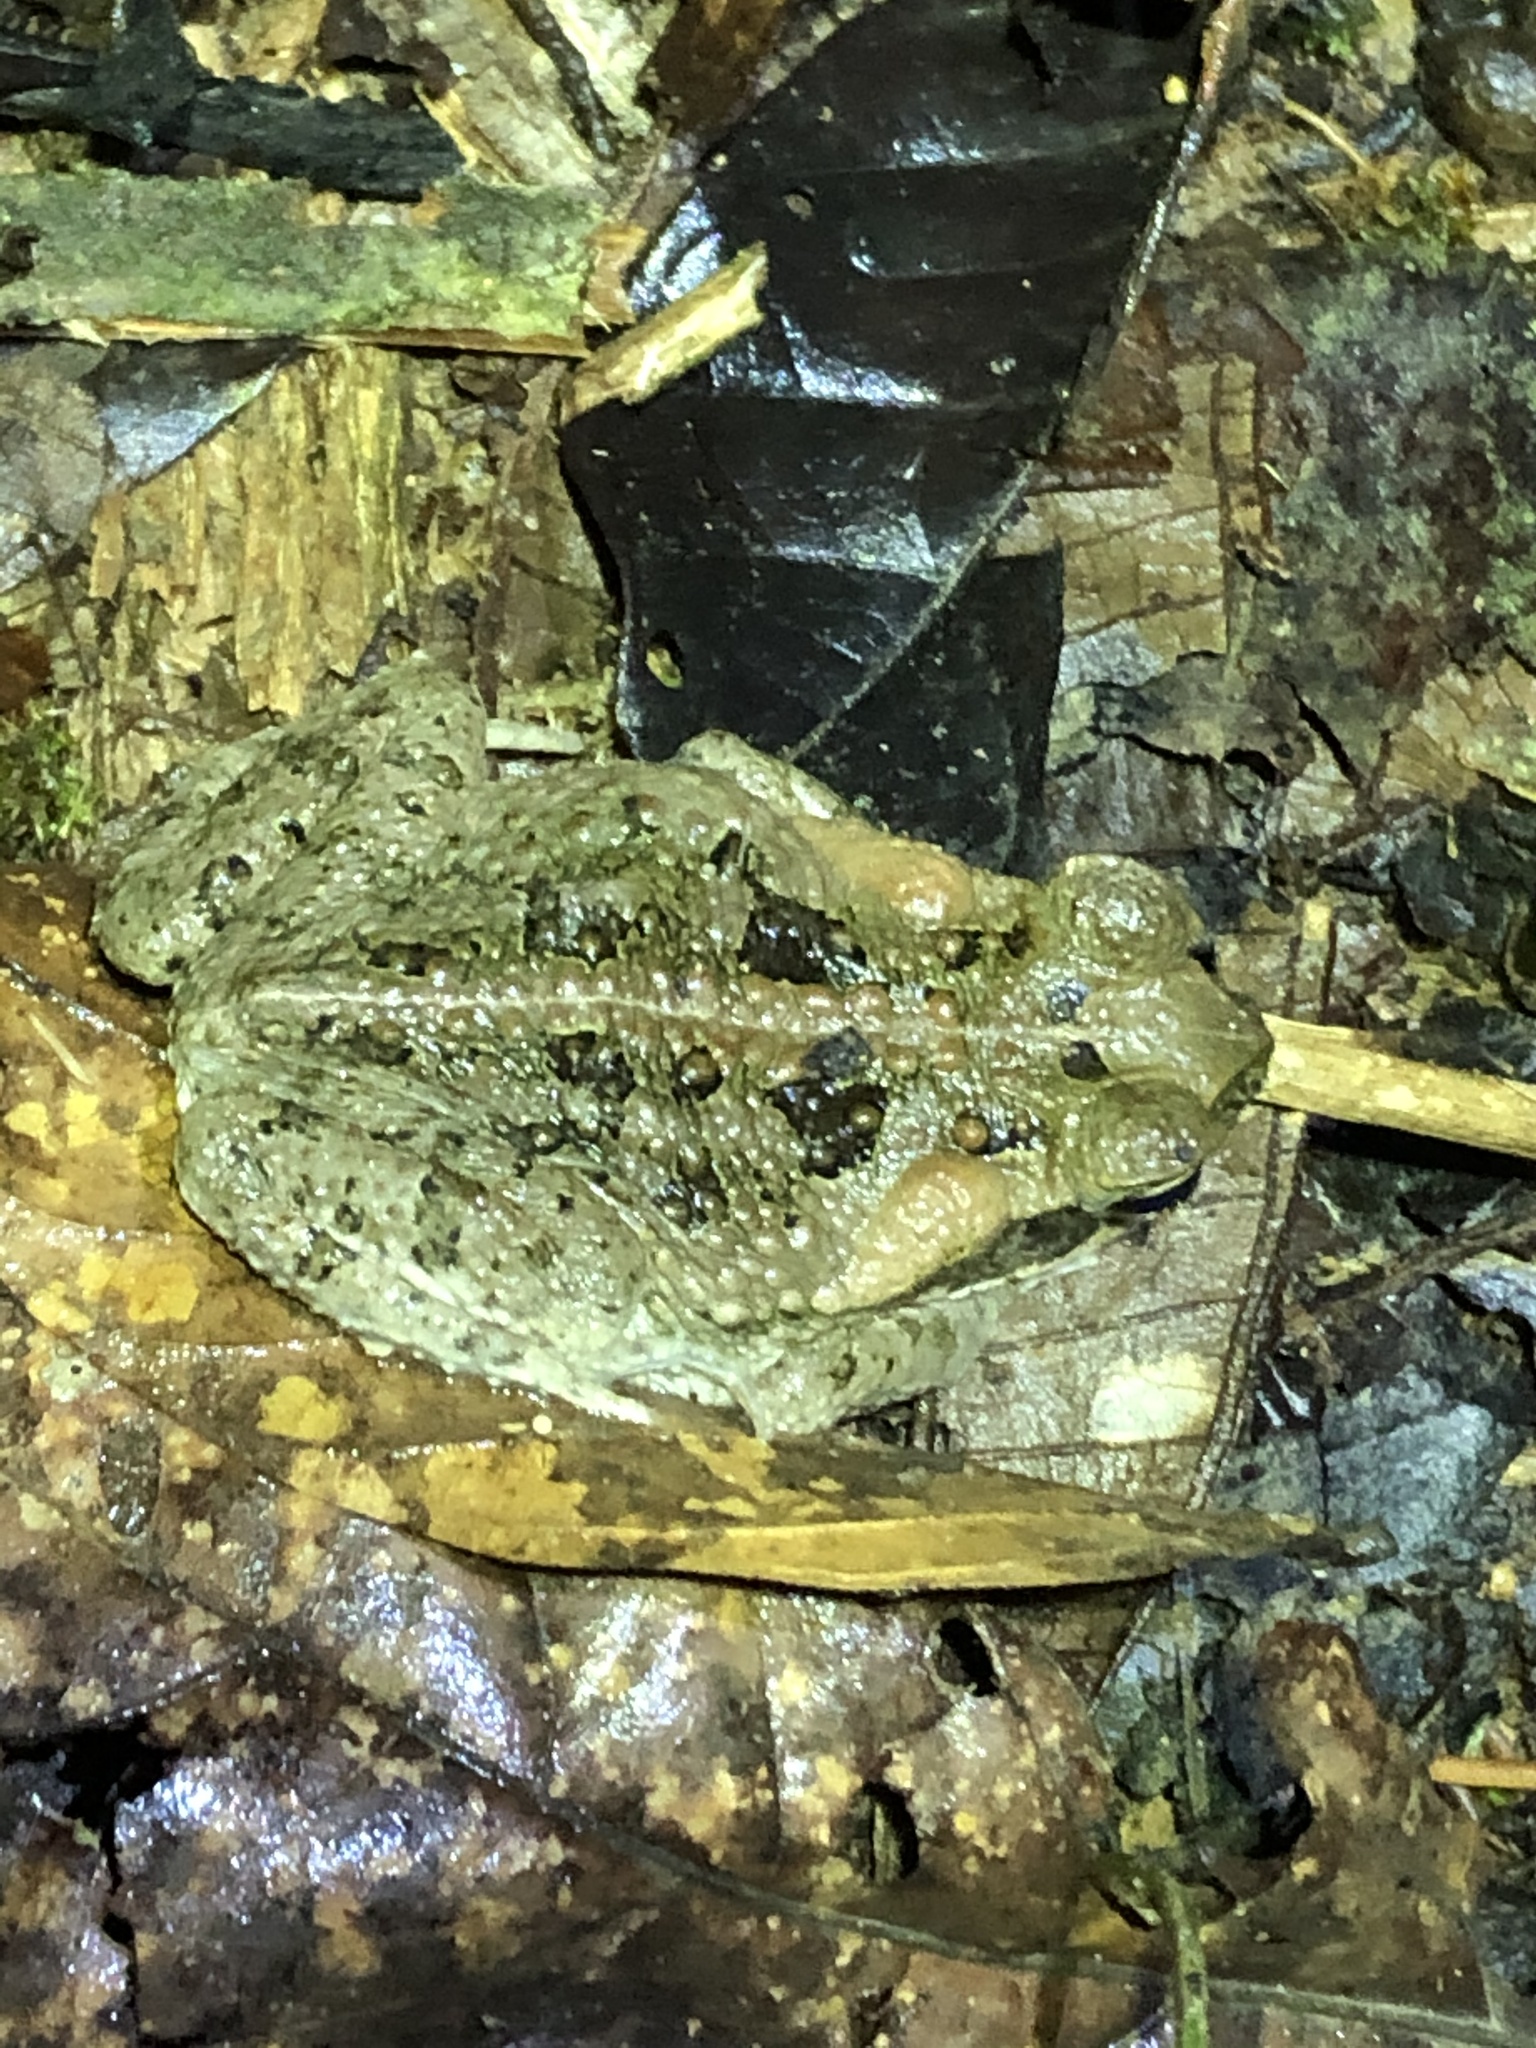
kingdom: Animalia
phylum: Chordata
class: Amphibia
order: Anura
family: Bufonidae
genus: Rhinella
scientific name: Rhinella marina
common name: Cane toad
